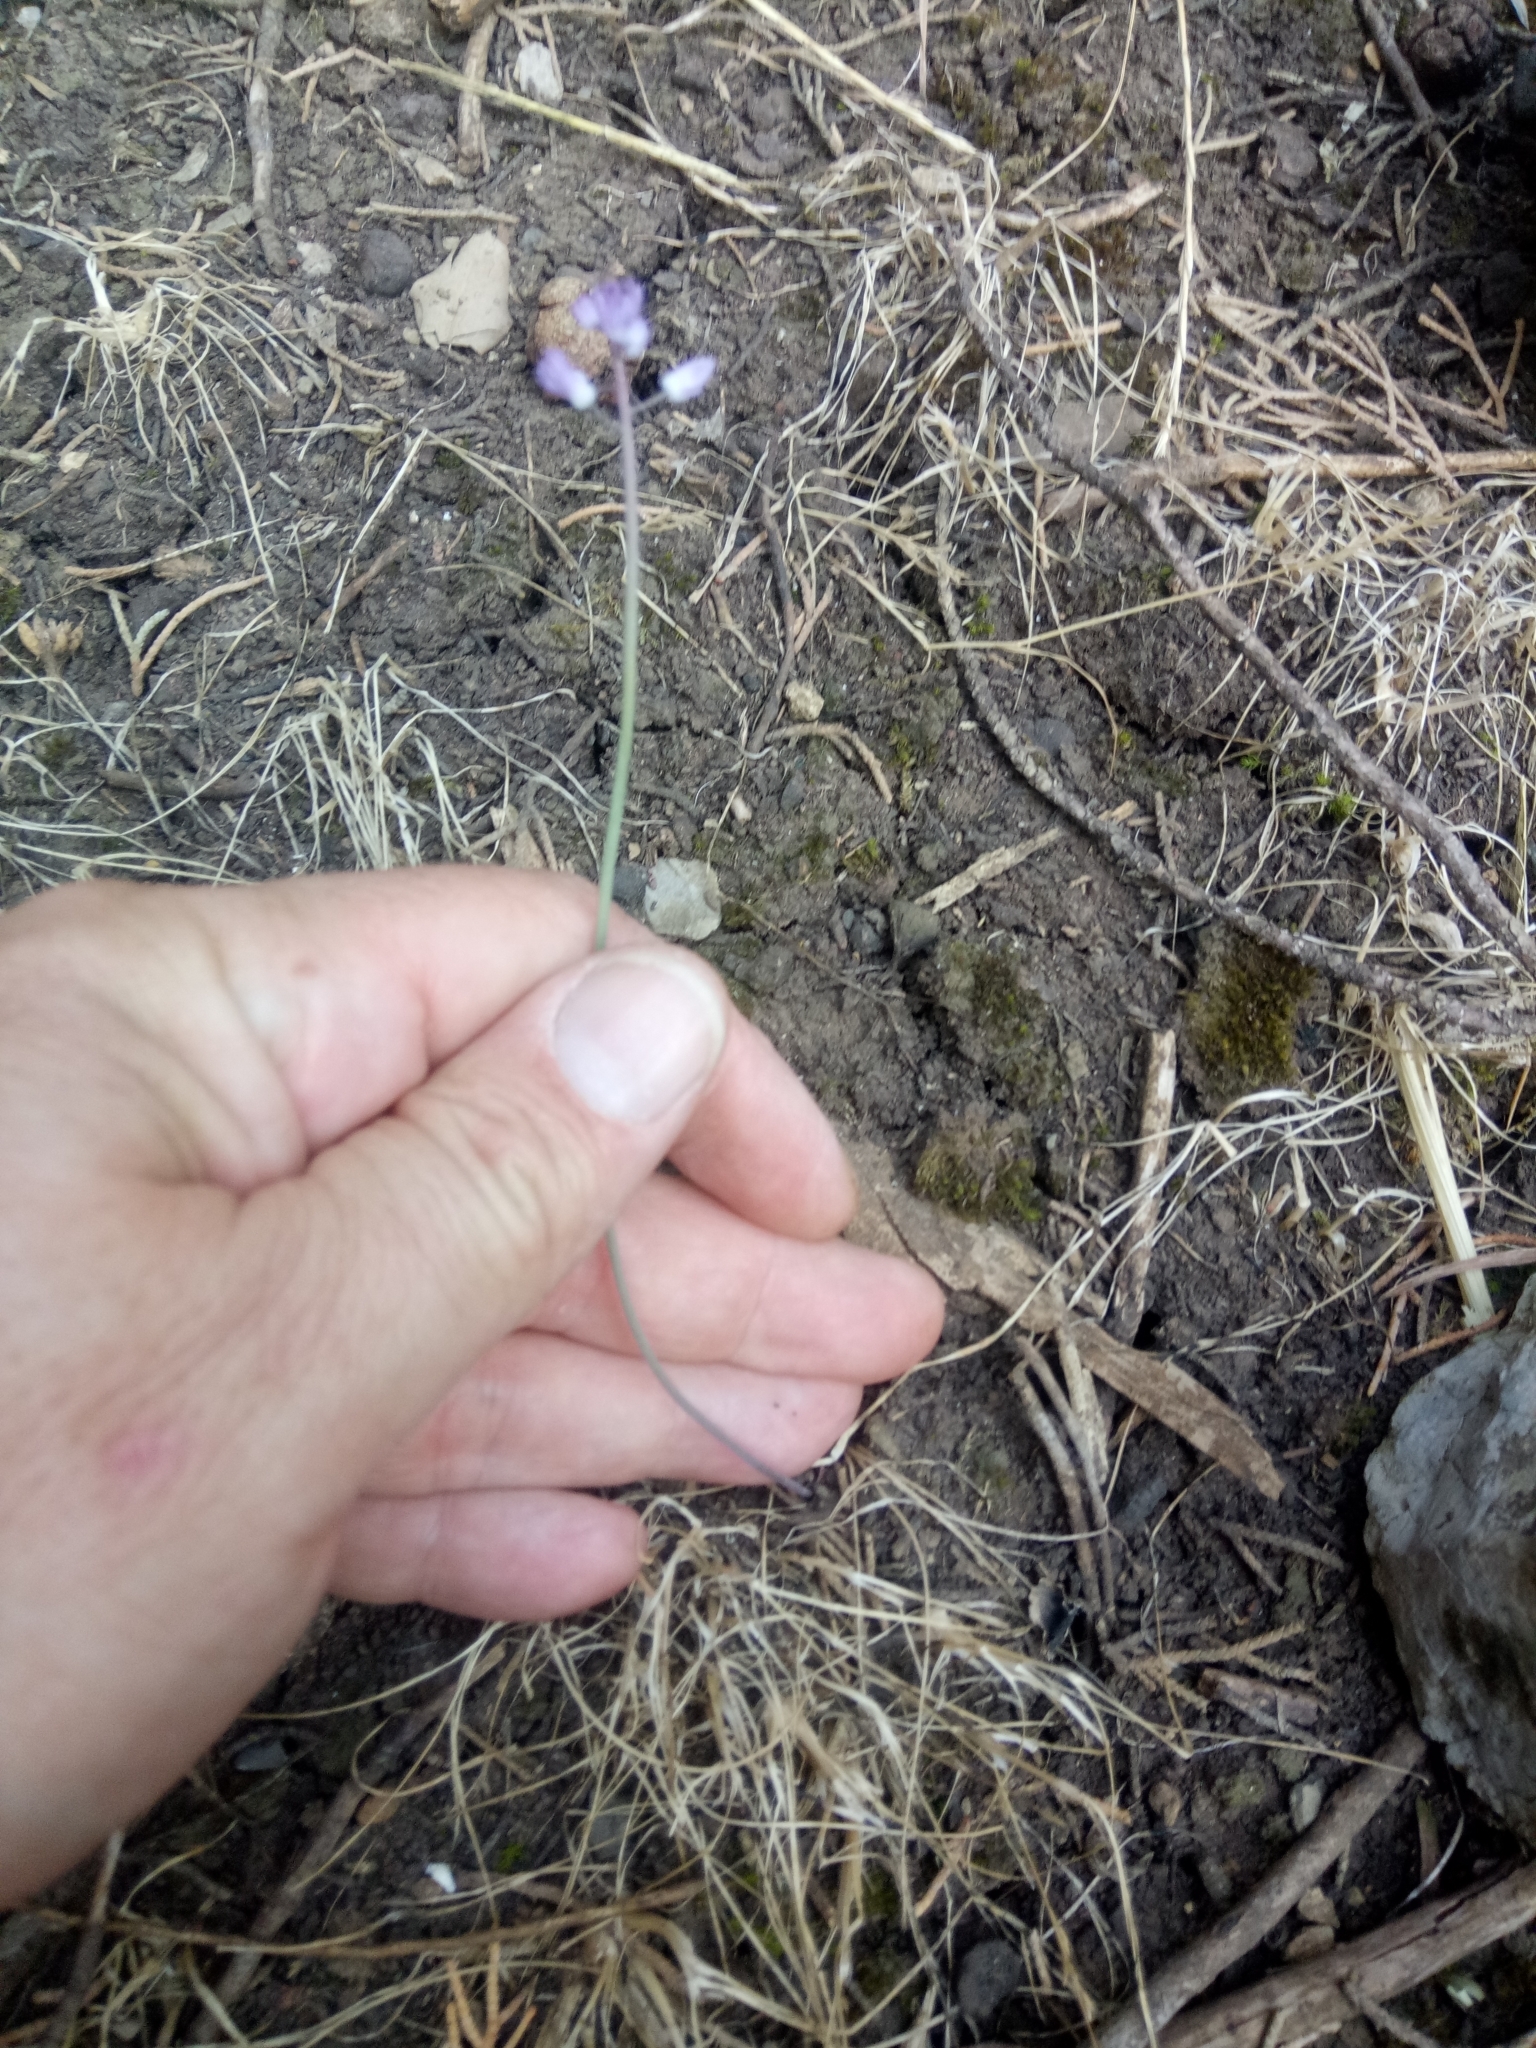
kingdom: Plantae
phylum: Tracheophyta
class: Liliopsida
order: Asparagales
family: Asparagaceae
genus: Prospero
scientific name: Prospero autumnale
